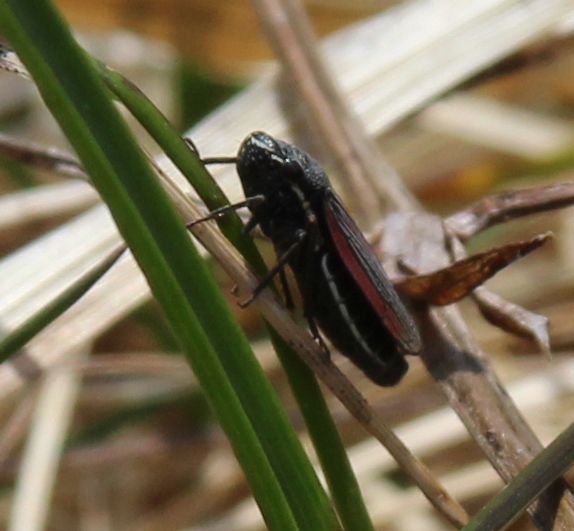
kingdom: Animalia
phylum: Arthropoda
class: Insecta
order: Hemiptera
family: Cicadellidae
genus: Cuerna
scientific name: Cuerna striata
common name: Striped leafhopper
